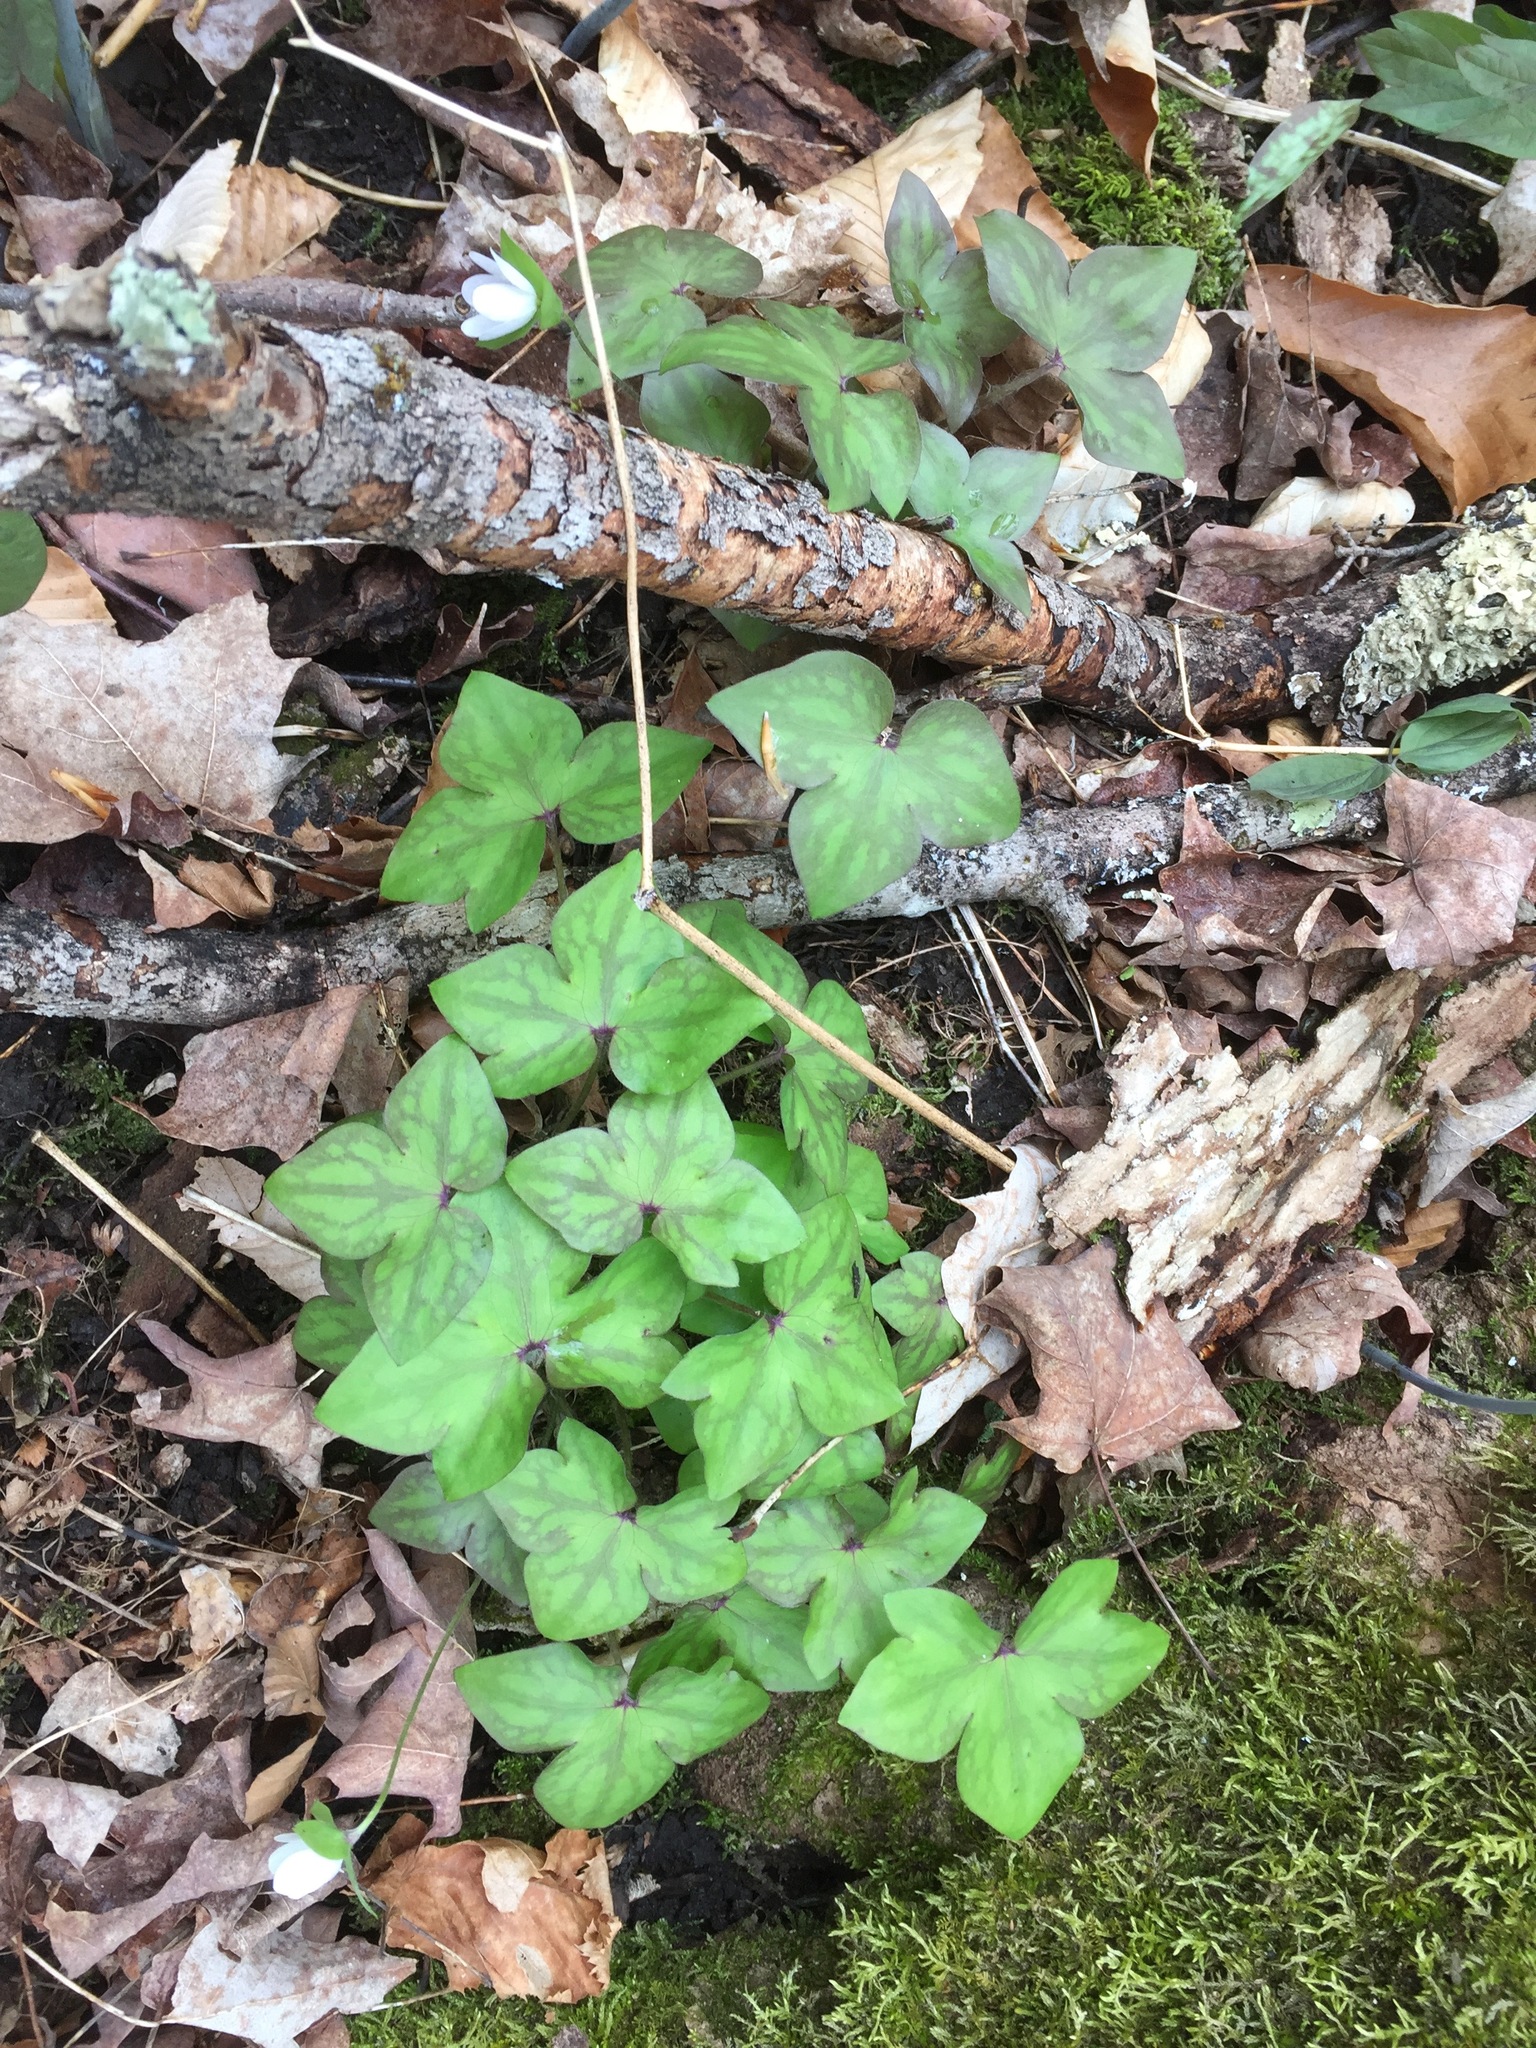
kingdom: Plantae
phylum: Tracheophyta
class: Magnoliopsida
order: Ranunculales
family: Ranunculaceae
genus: Hepatica
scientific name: Hepatica acutiloba
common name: Sharp-lobed hepatica
